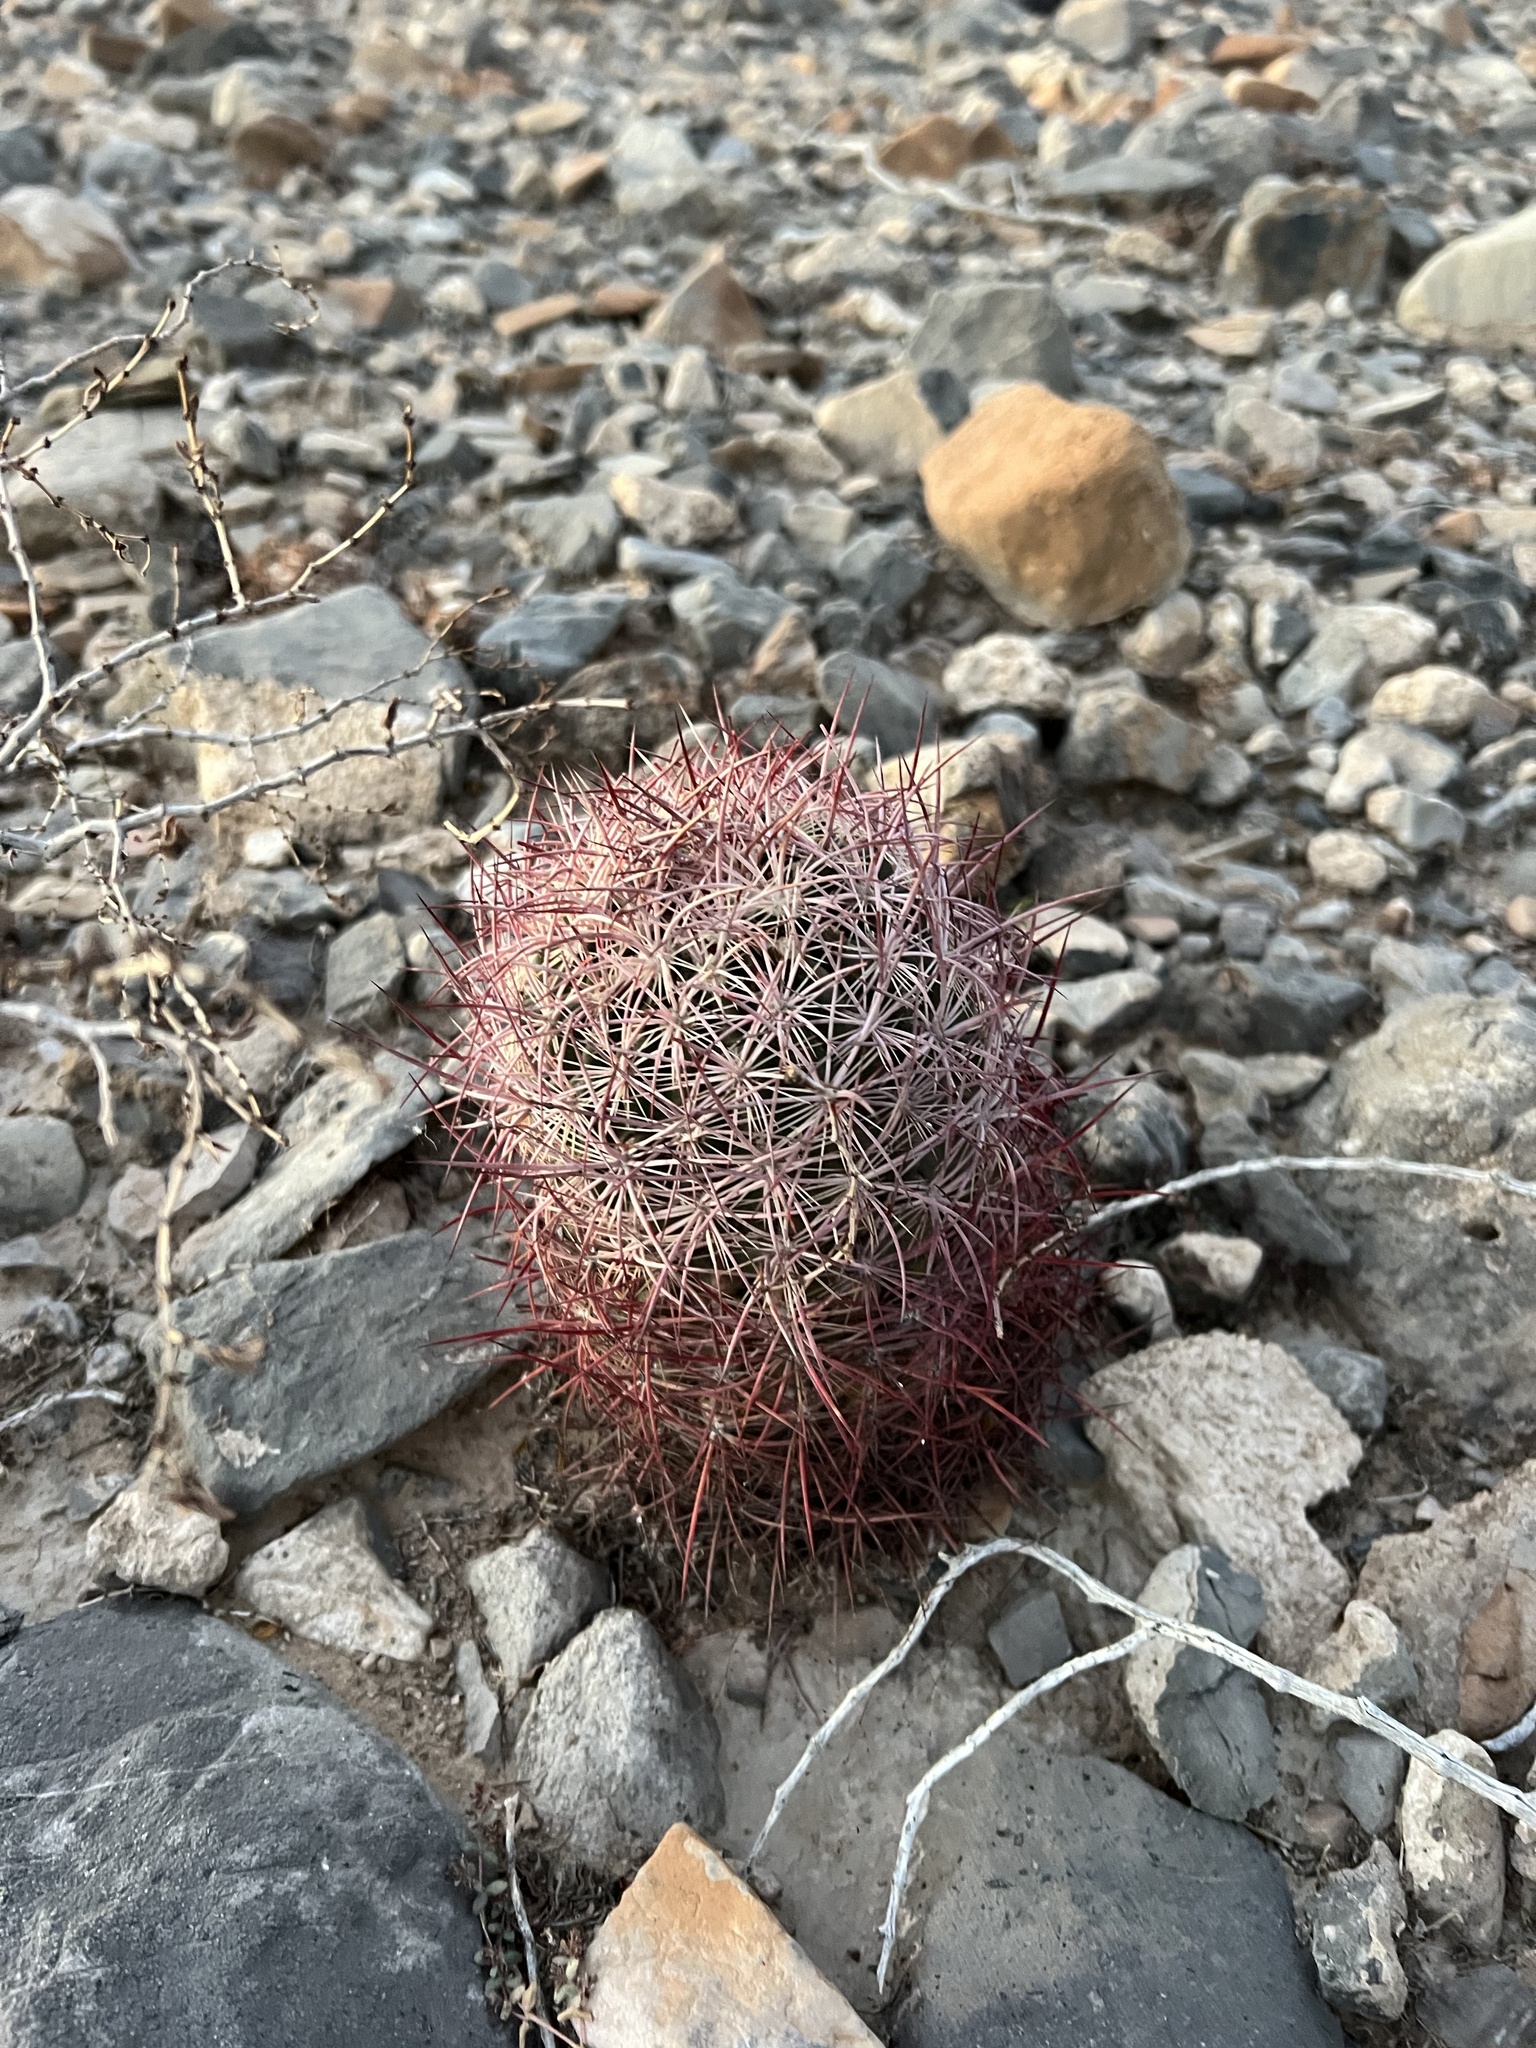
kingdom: Plantae
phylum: Tracheophyta
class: Magnoliopsida
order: Caryophyllales
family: Cactaceae
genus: Sclerocactus
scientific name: Sclerocactus johnsonii
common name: Eight-spine fishhook cactus
